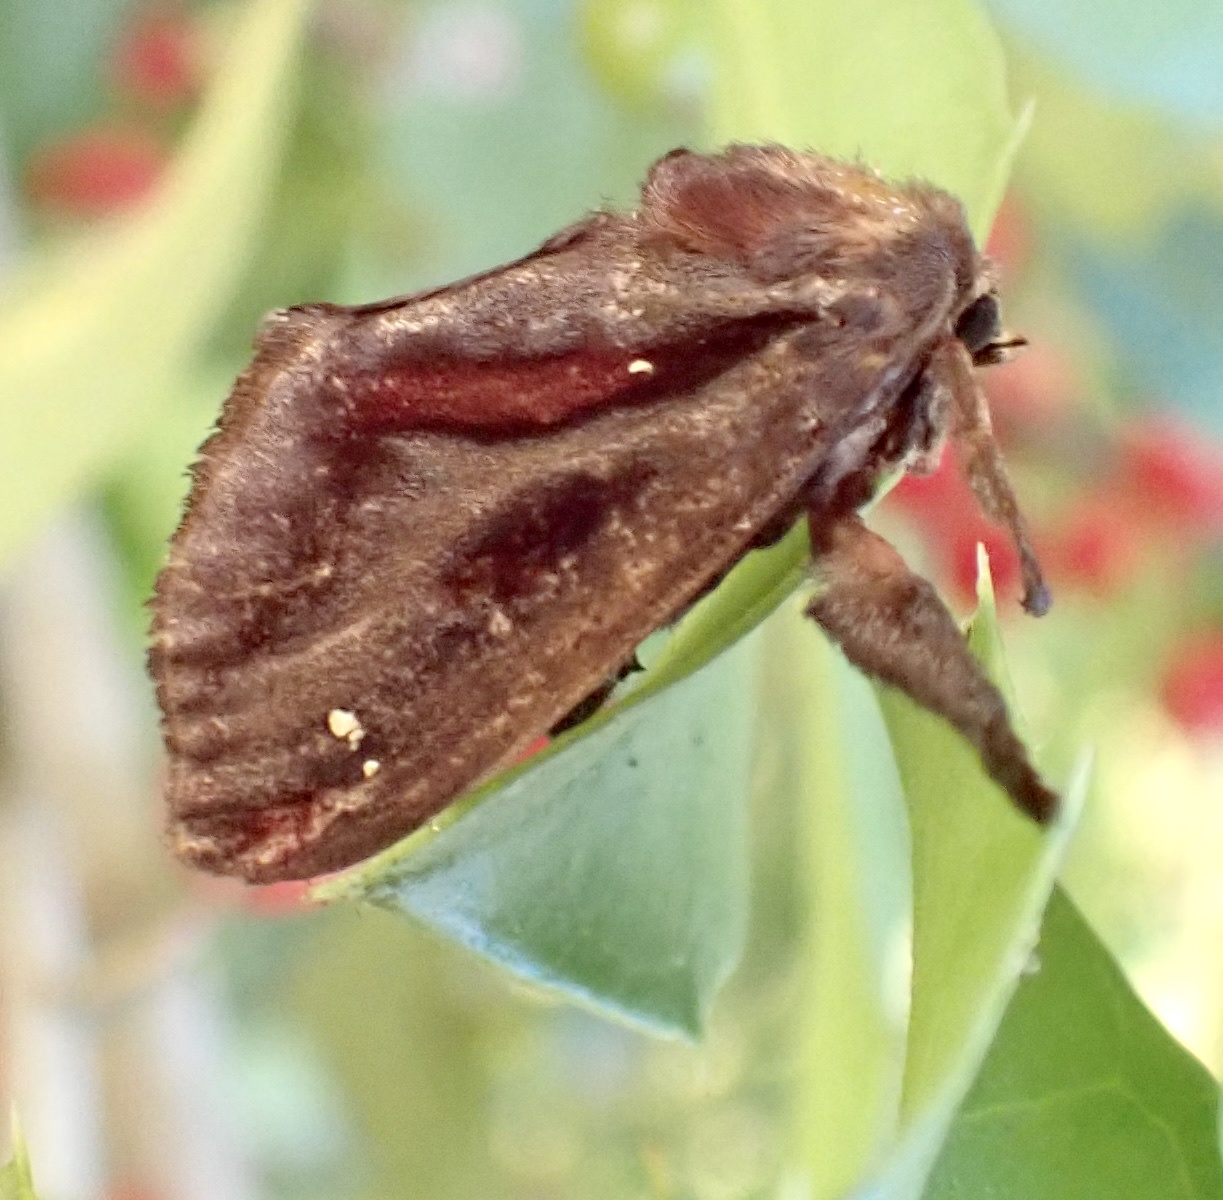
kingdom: Animalia
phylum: Arthropoda
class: Insecta
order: Lepidoptera
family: Limacodidae
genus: Acharia
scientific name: Acharia stimulea
